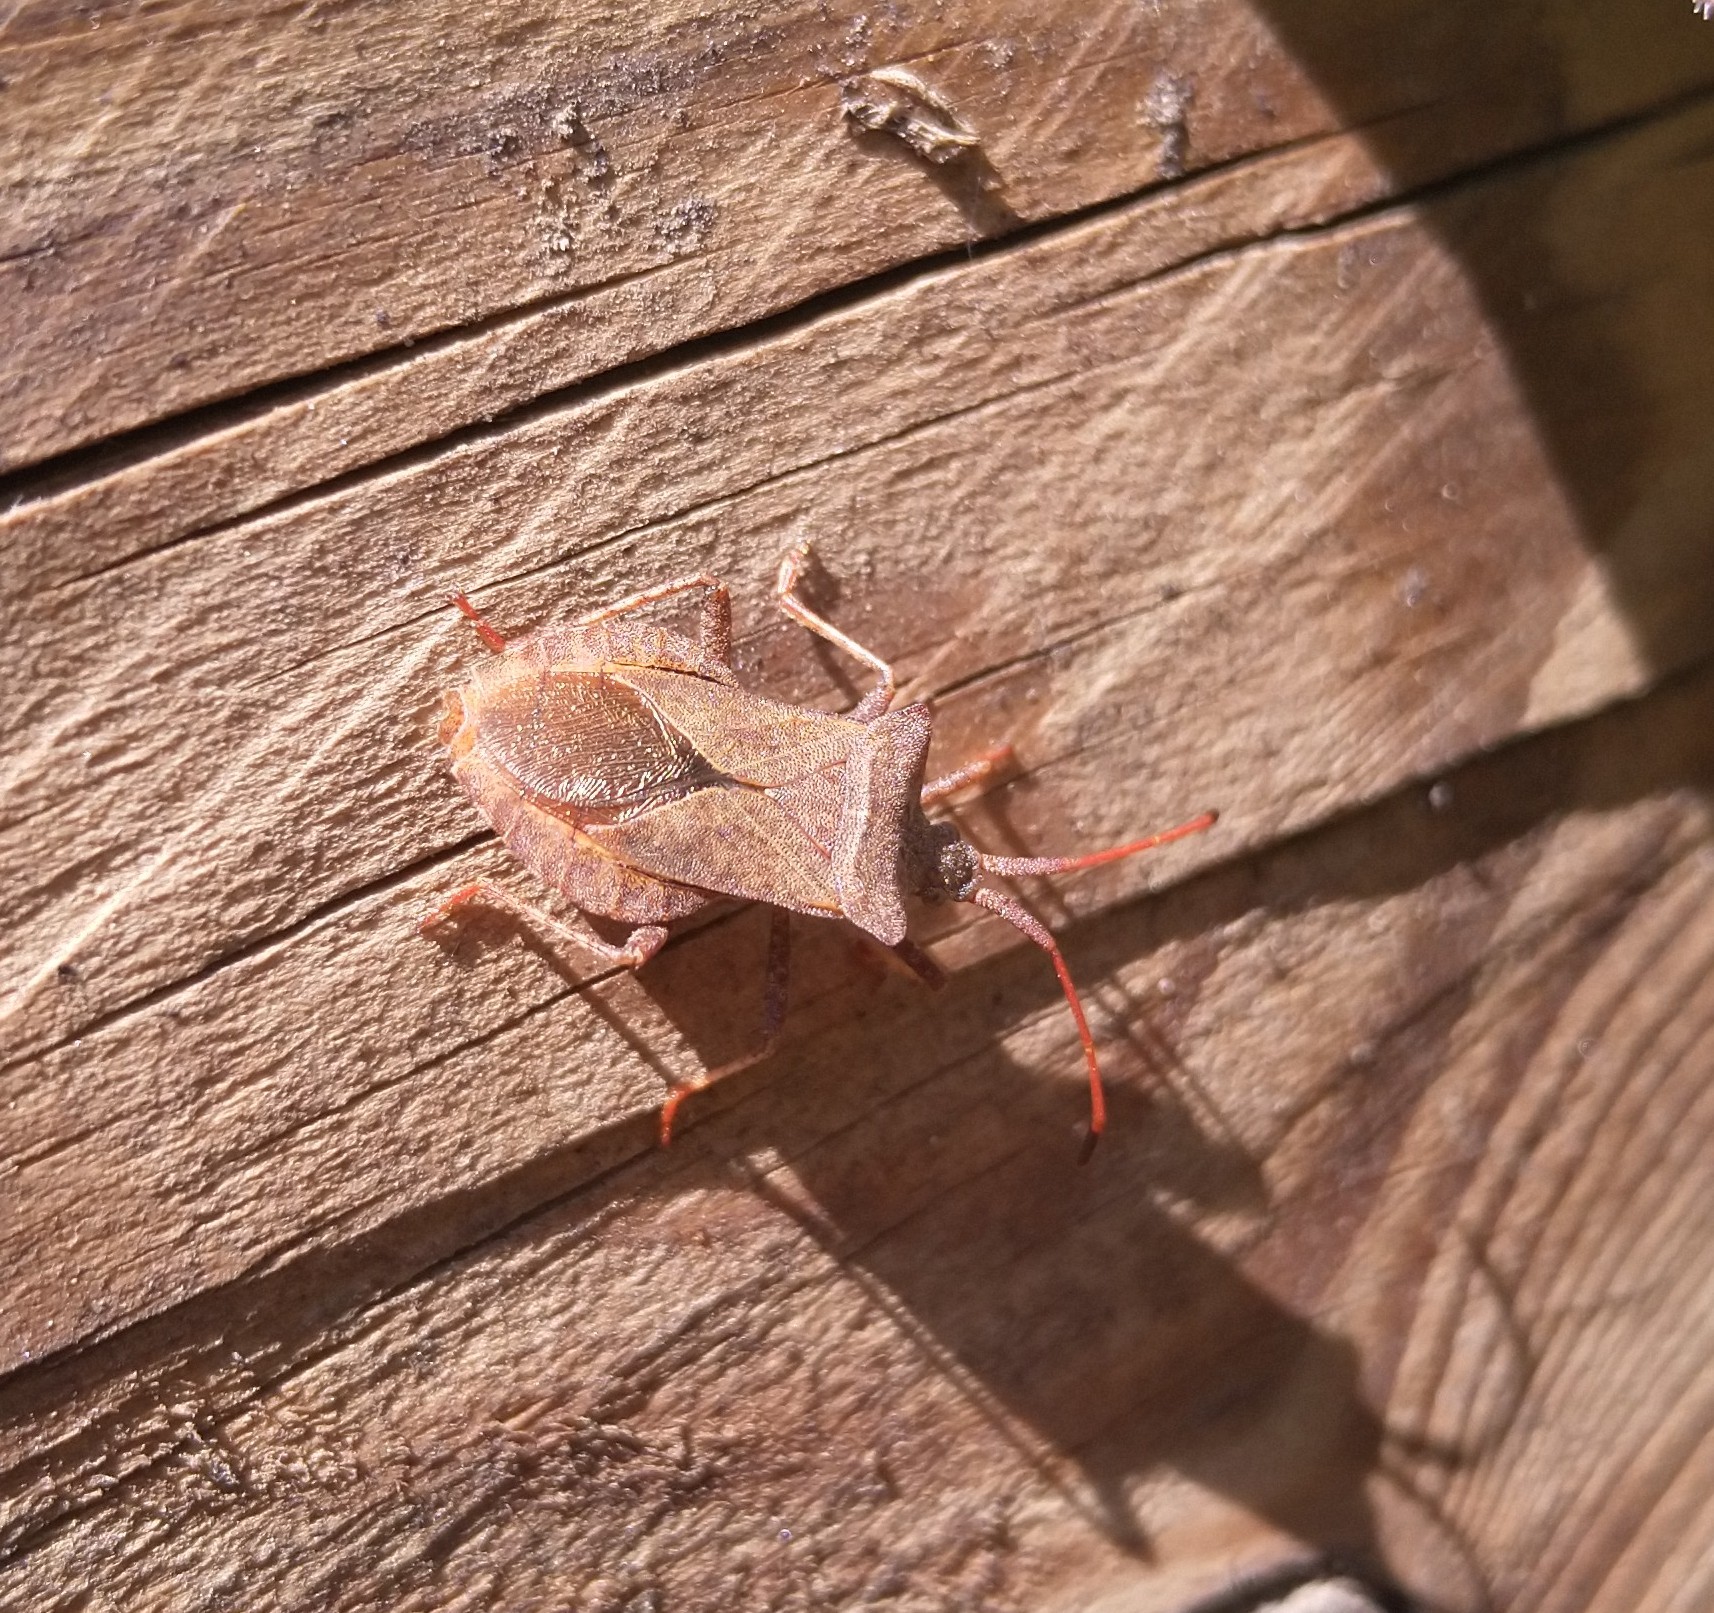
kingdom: Animalia
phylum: Arthropoda
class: Insecta
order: Hemiptera
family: Coreidae
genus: Coreus
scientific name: Coreus marginatus
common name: Dock bug
